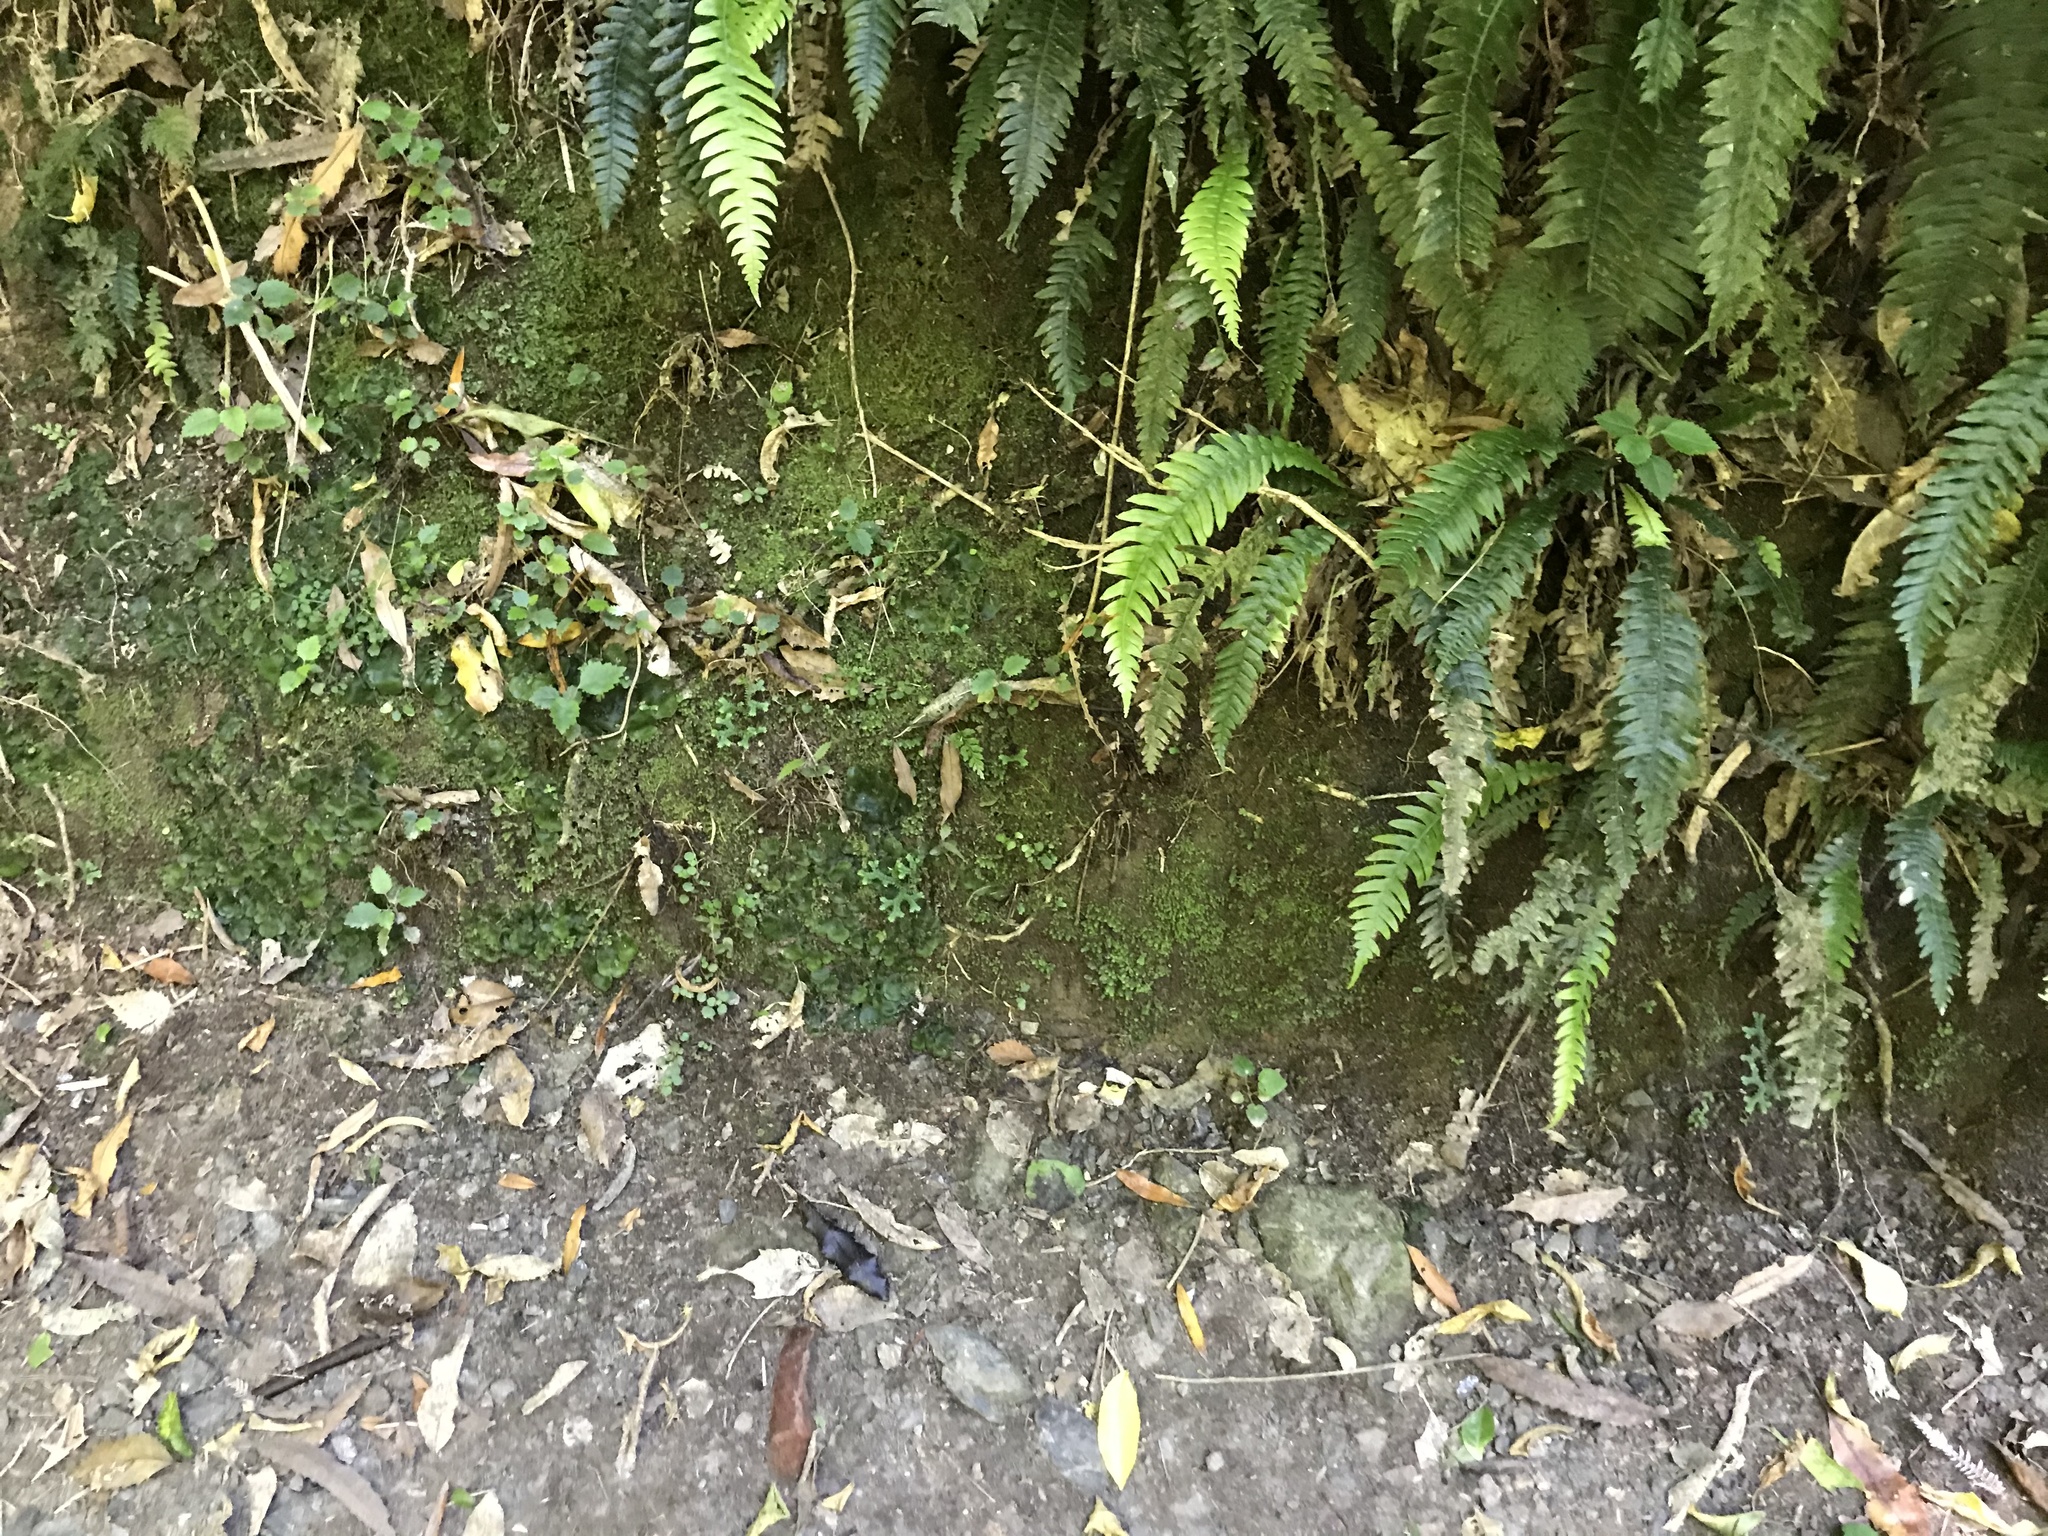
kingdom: Plantae
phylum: Tracheophyta
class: Lycopodiopsida
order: Selaginellales
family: Selaginellaceae
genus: Selaginella
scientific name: Selaginella kraussiana
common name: Krauss' spikemoss
